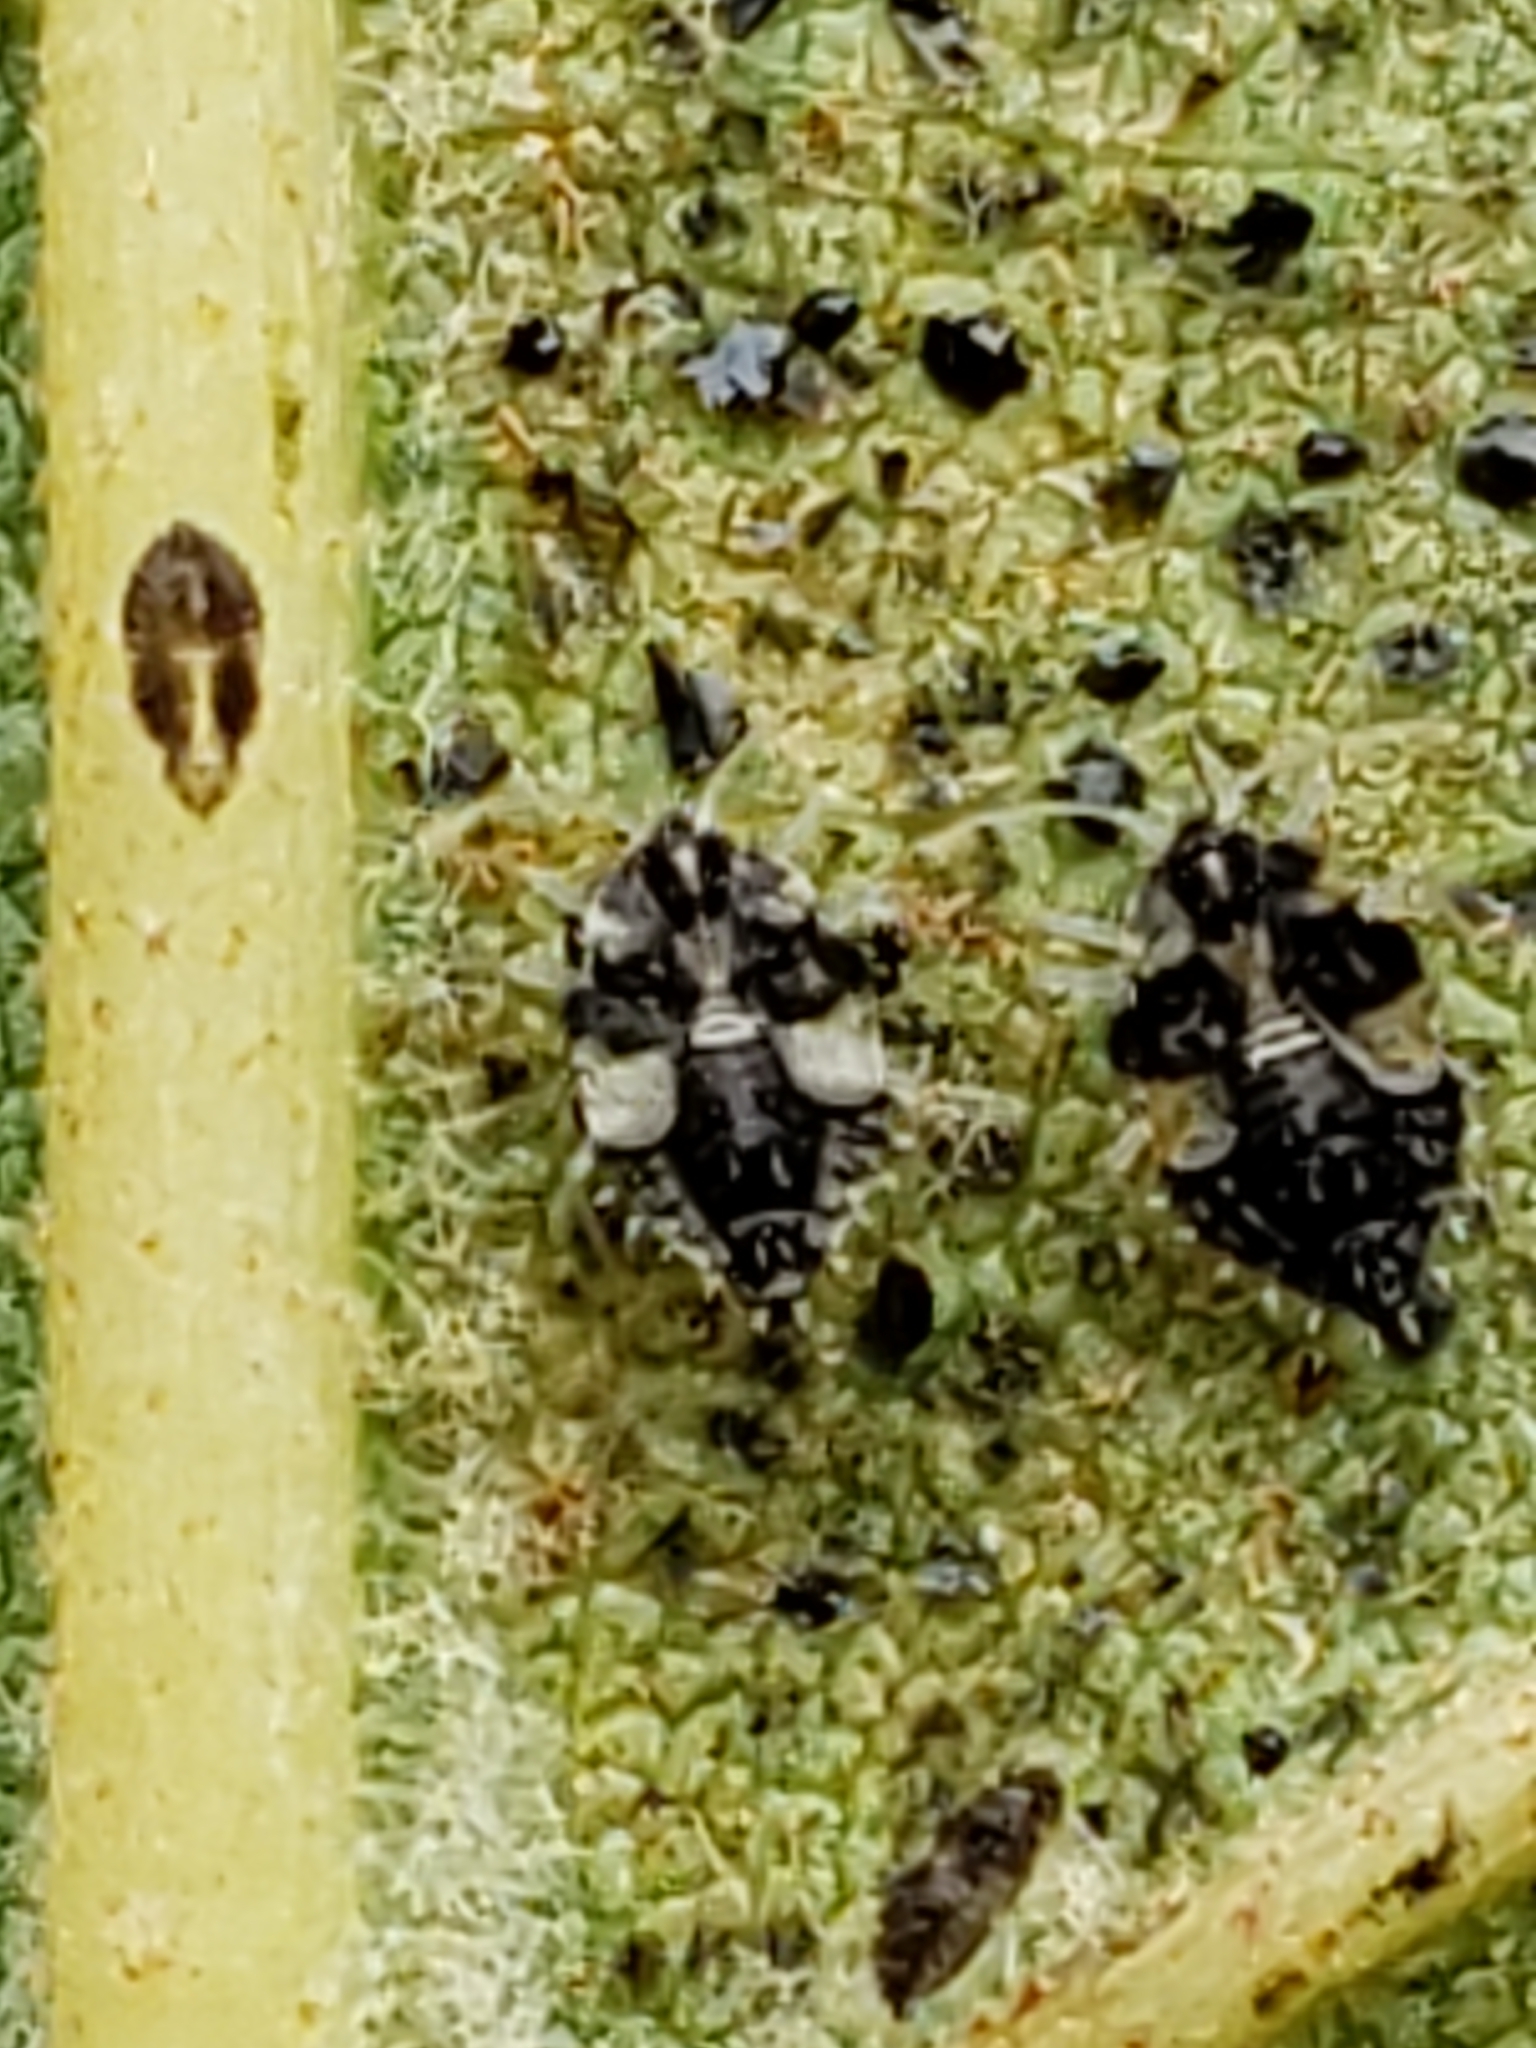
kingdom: Animalia
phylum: Arthropoda
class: Insecta
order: Hemiptera
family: Tingidae
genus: Corythucha
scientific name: Corythucha ciliata
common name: Sycamore lace bug
